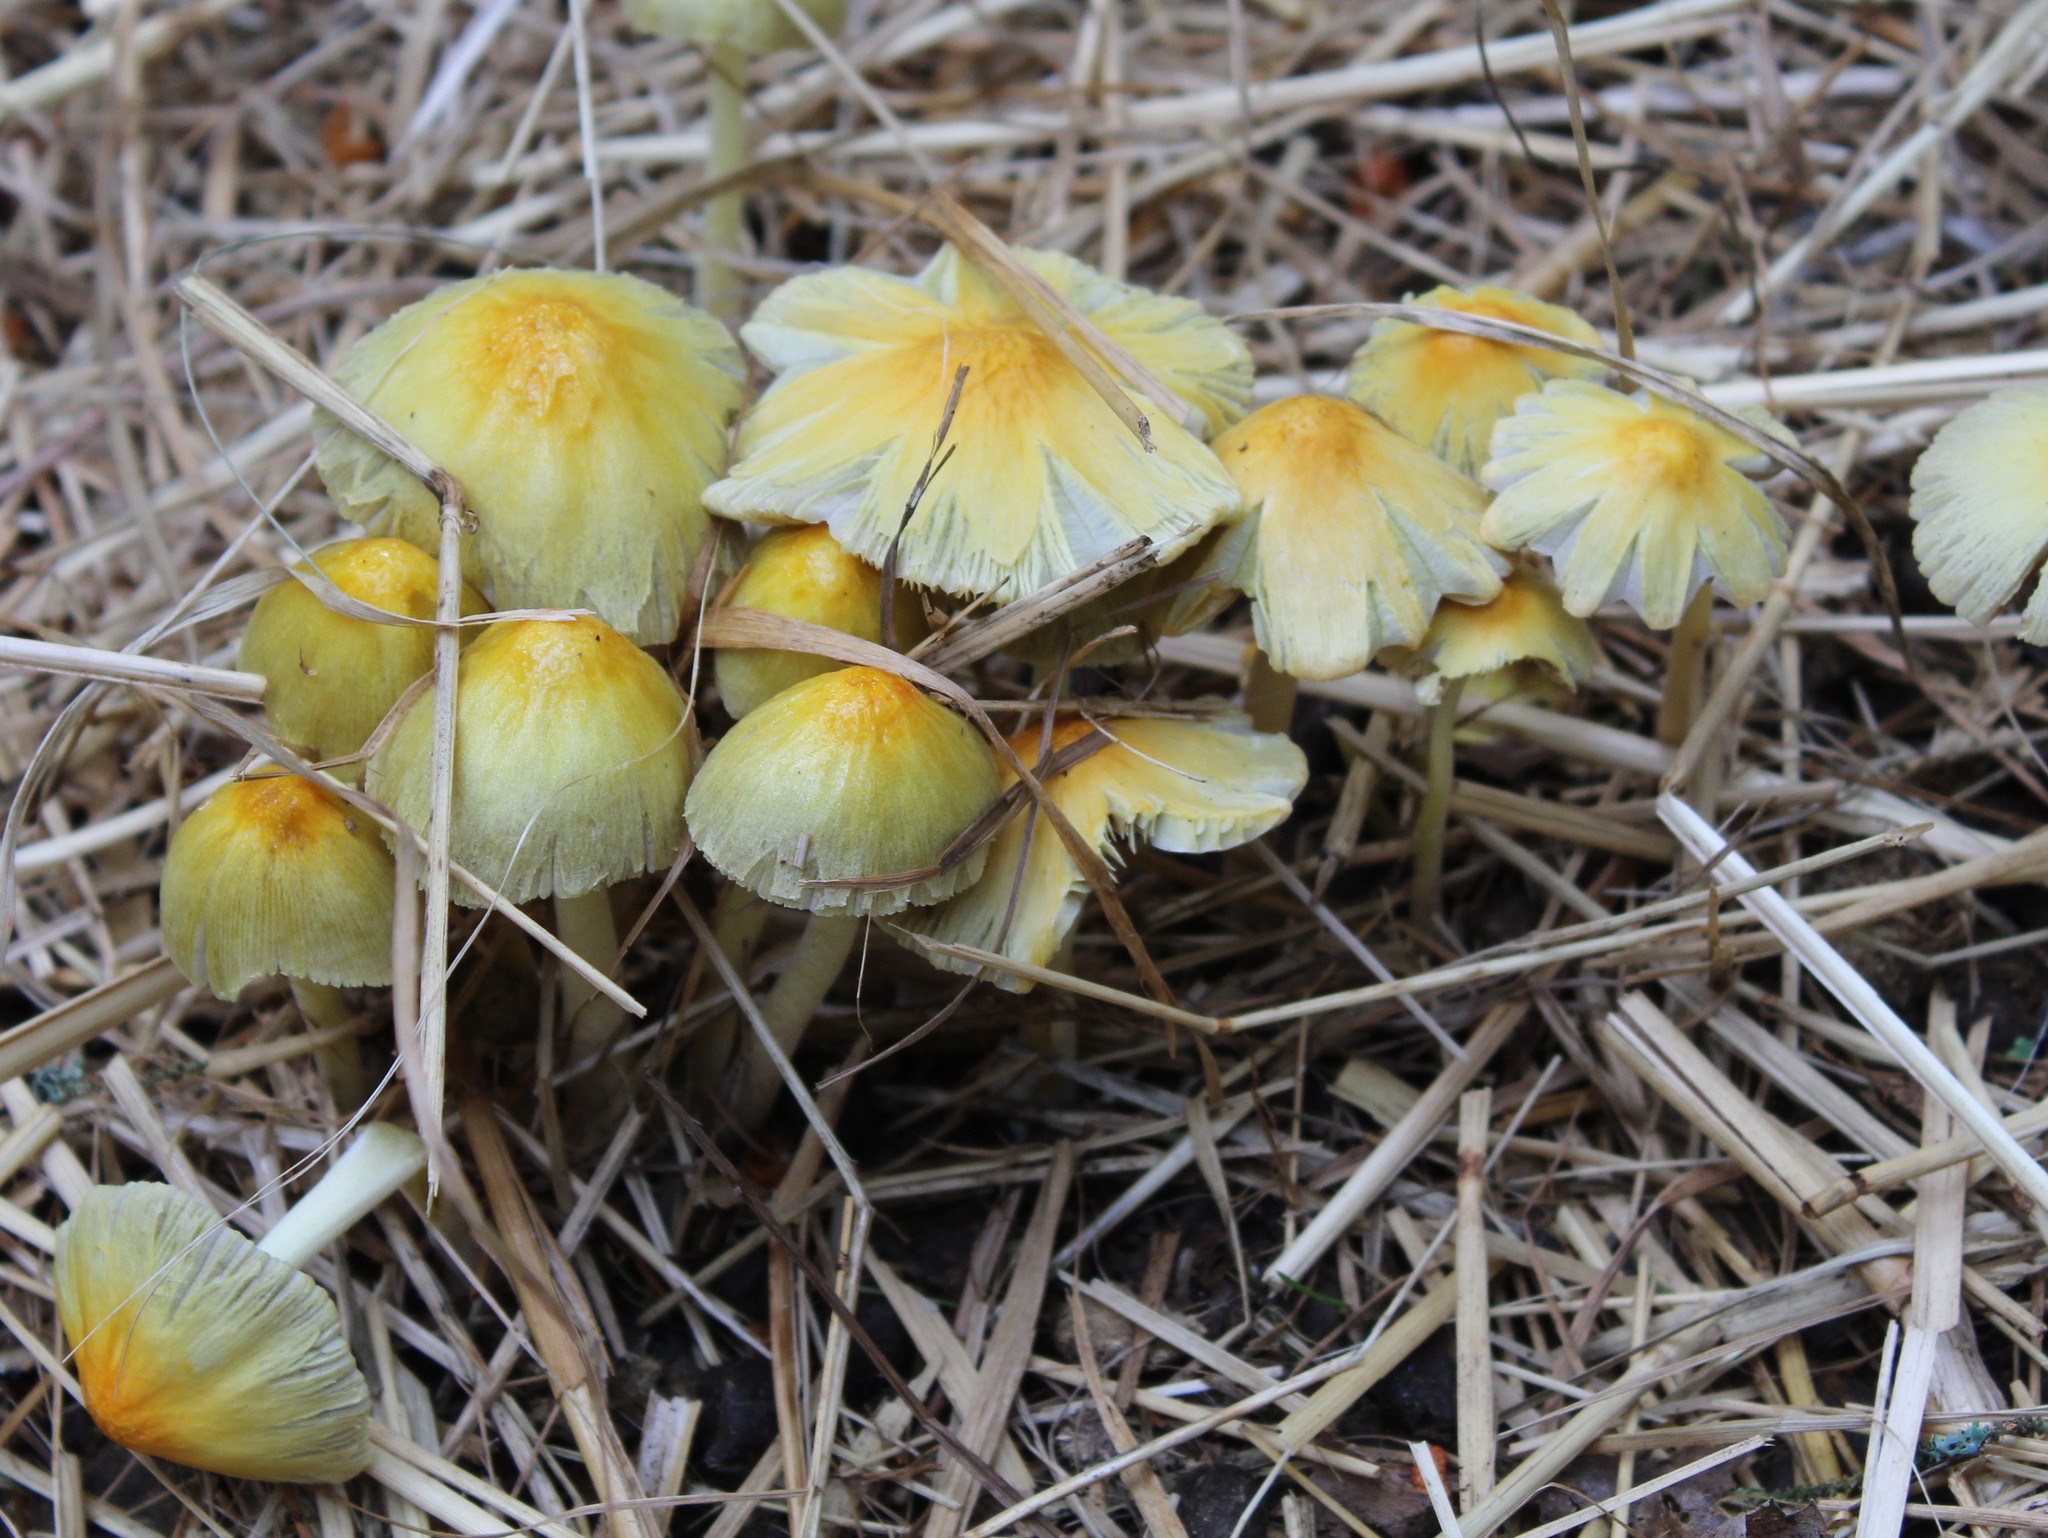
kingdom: Fungi
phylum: Basidiomycota
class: Agaricomycetes
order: Agaricales
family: Bolbitiaceae
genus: Bolbitius
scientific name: Bolbitius titubans
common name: Yellow fieldcap
